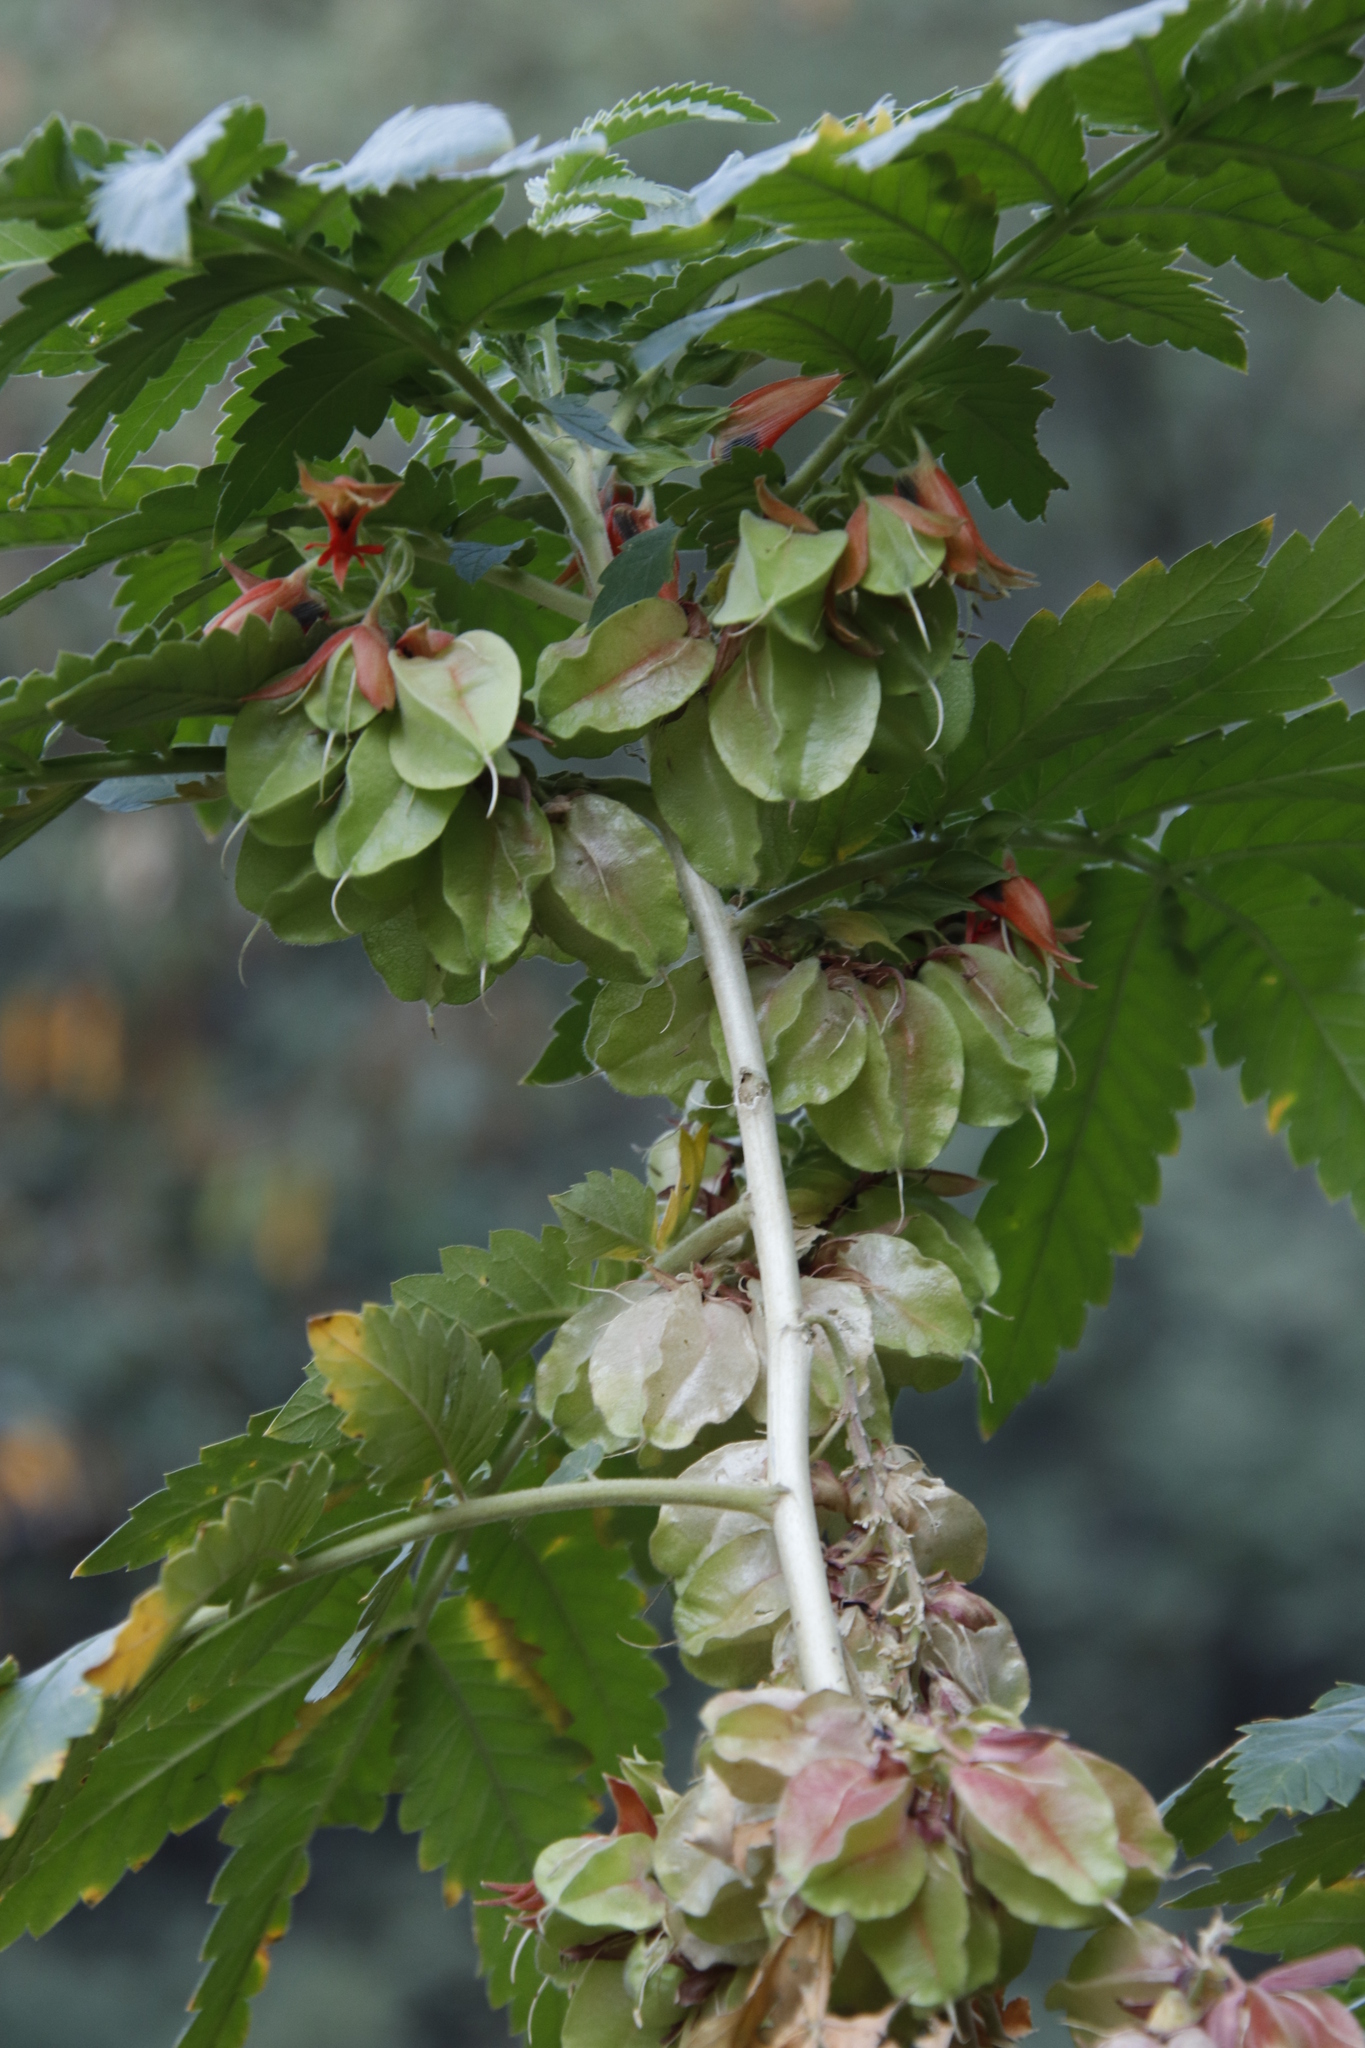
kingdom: Plantae
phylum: Tracheophyta
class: Magnoliopsida
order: Geraniales
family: Melianthaceae
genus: Melianthus
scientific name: Melianthus comosus
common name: Touch-me-not
